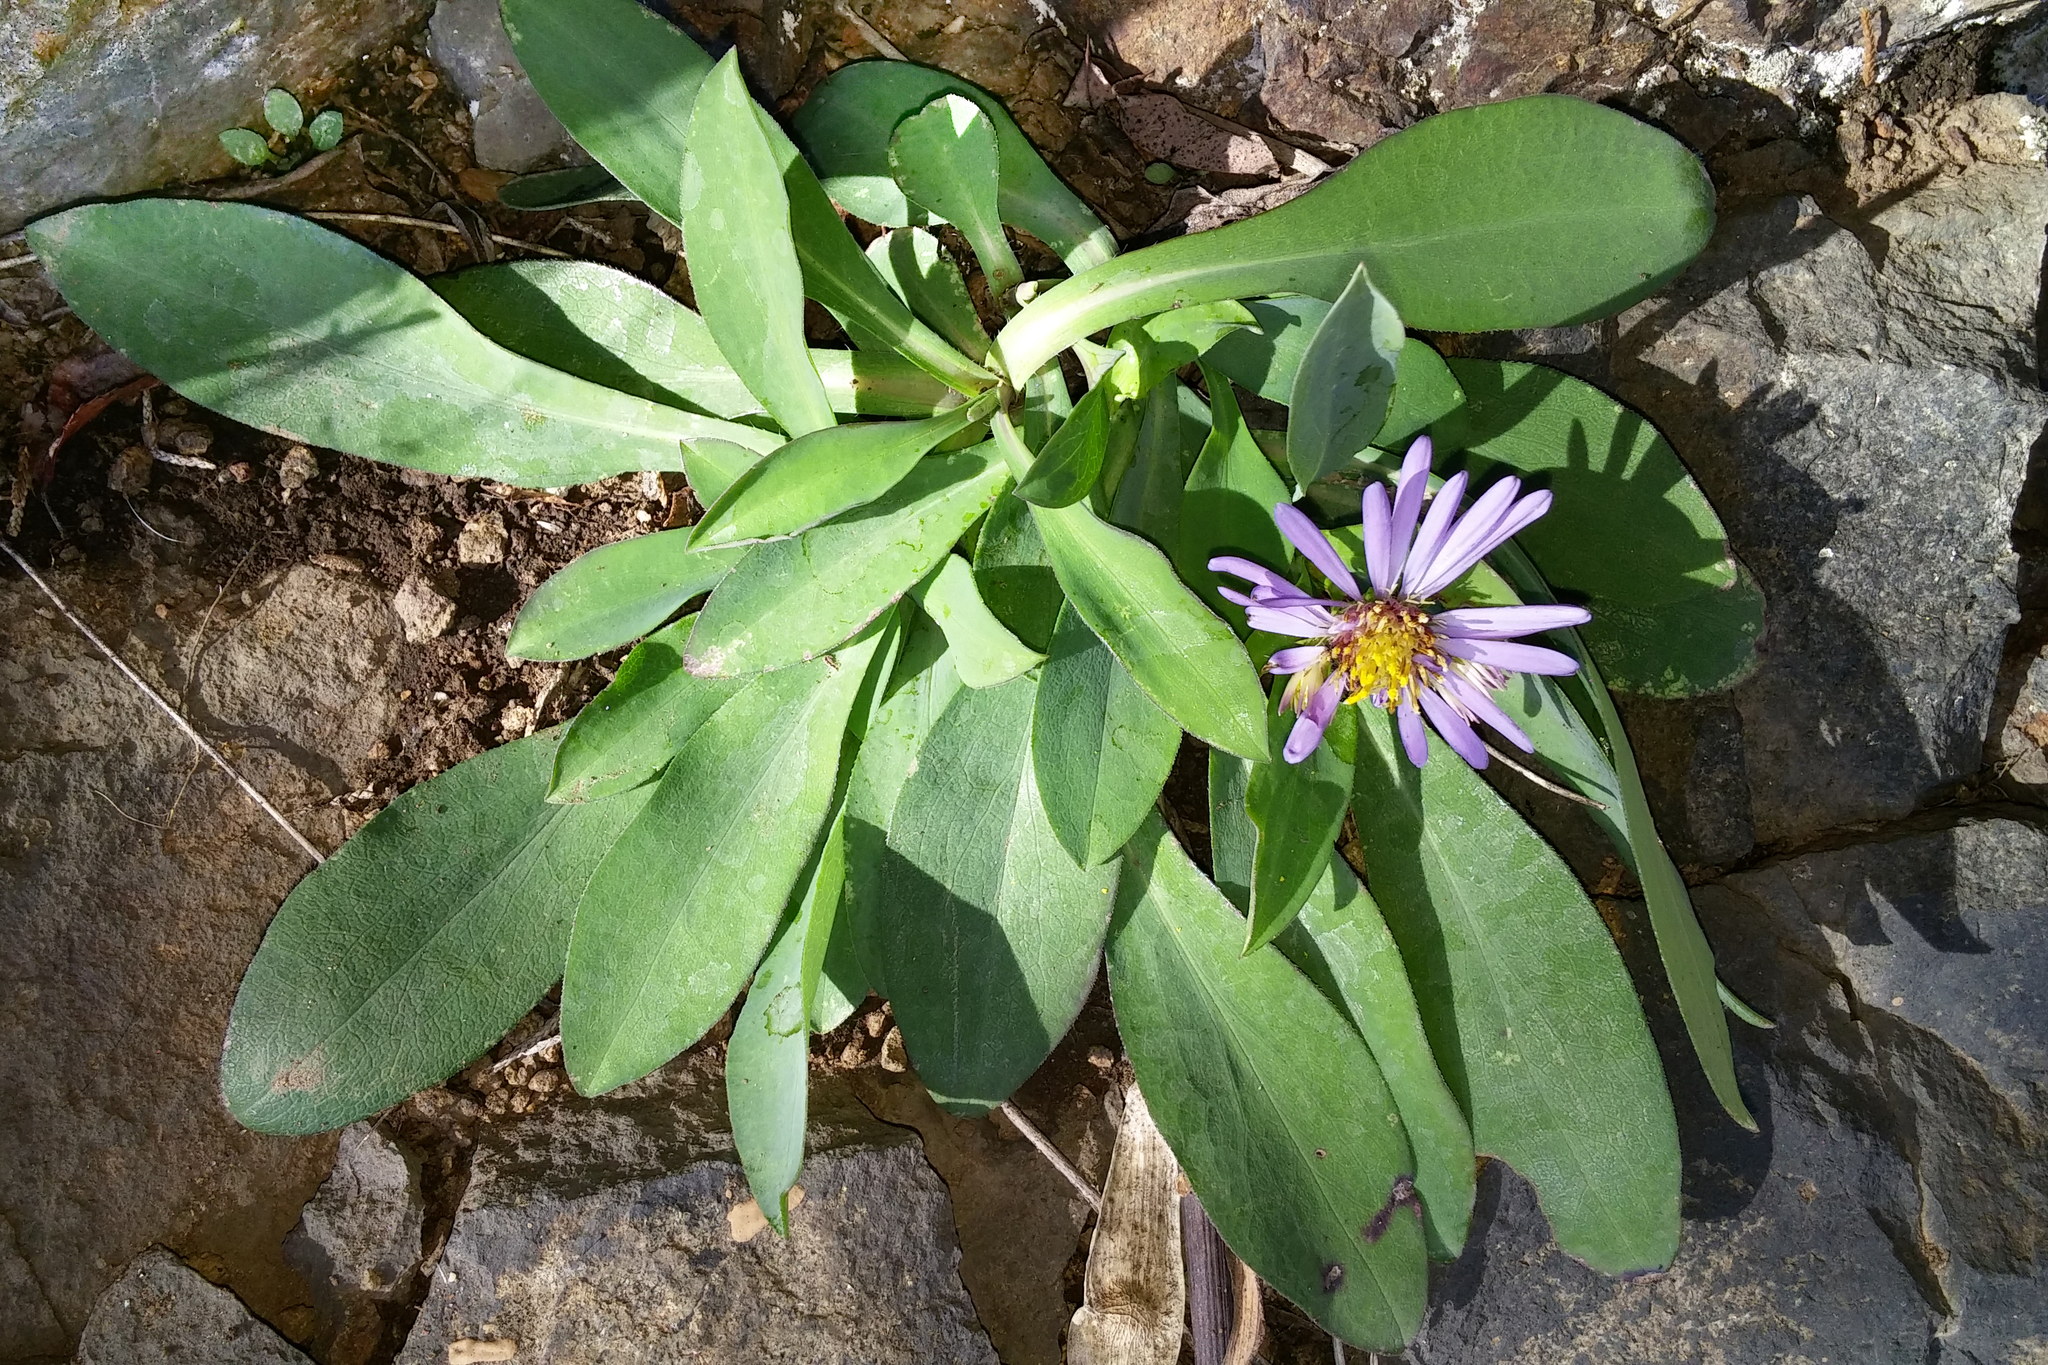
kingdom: Plantae
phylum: Tracheophyta
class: Magnoliopsida
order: Asterales
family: Asteraceae
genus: Symphyotrichum
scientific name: Symphyotrichum laeve
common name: Glaucous aster
